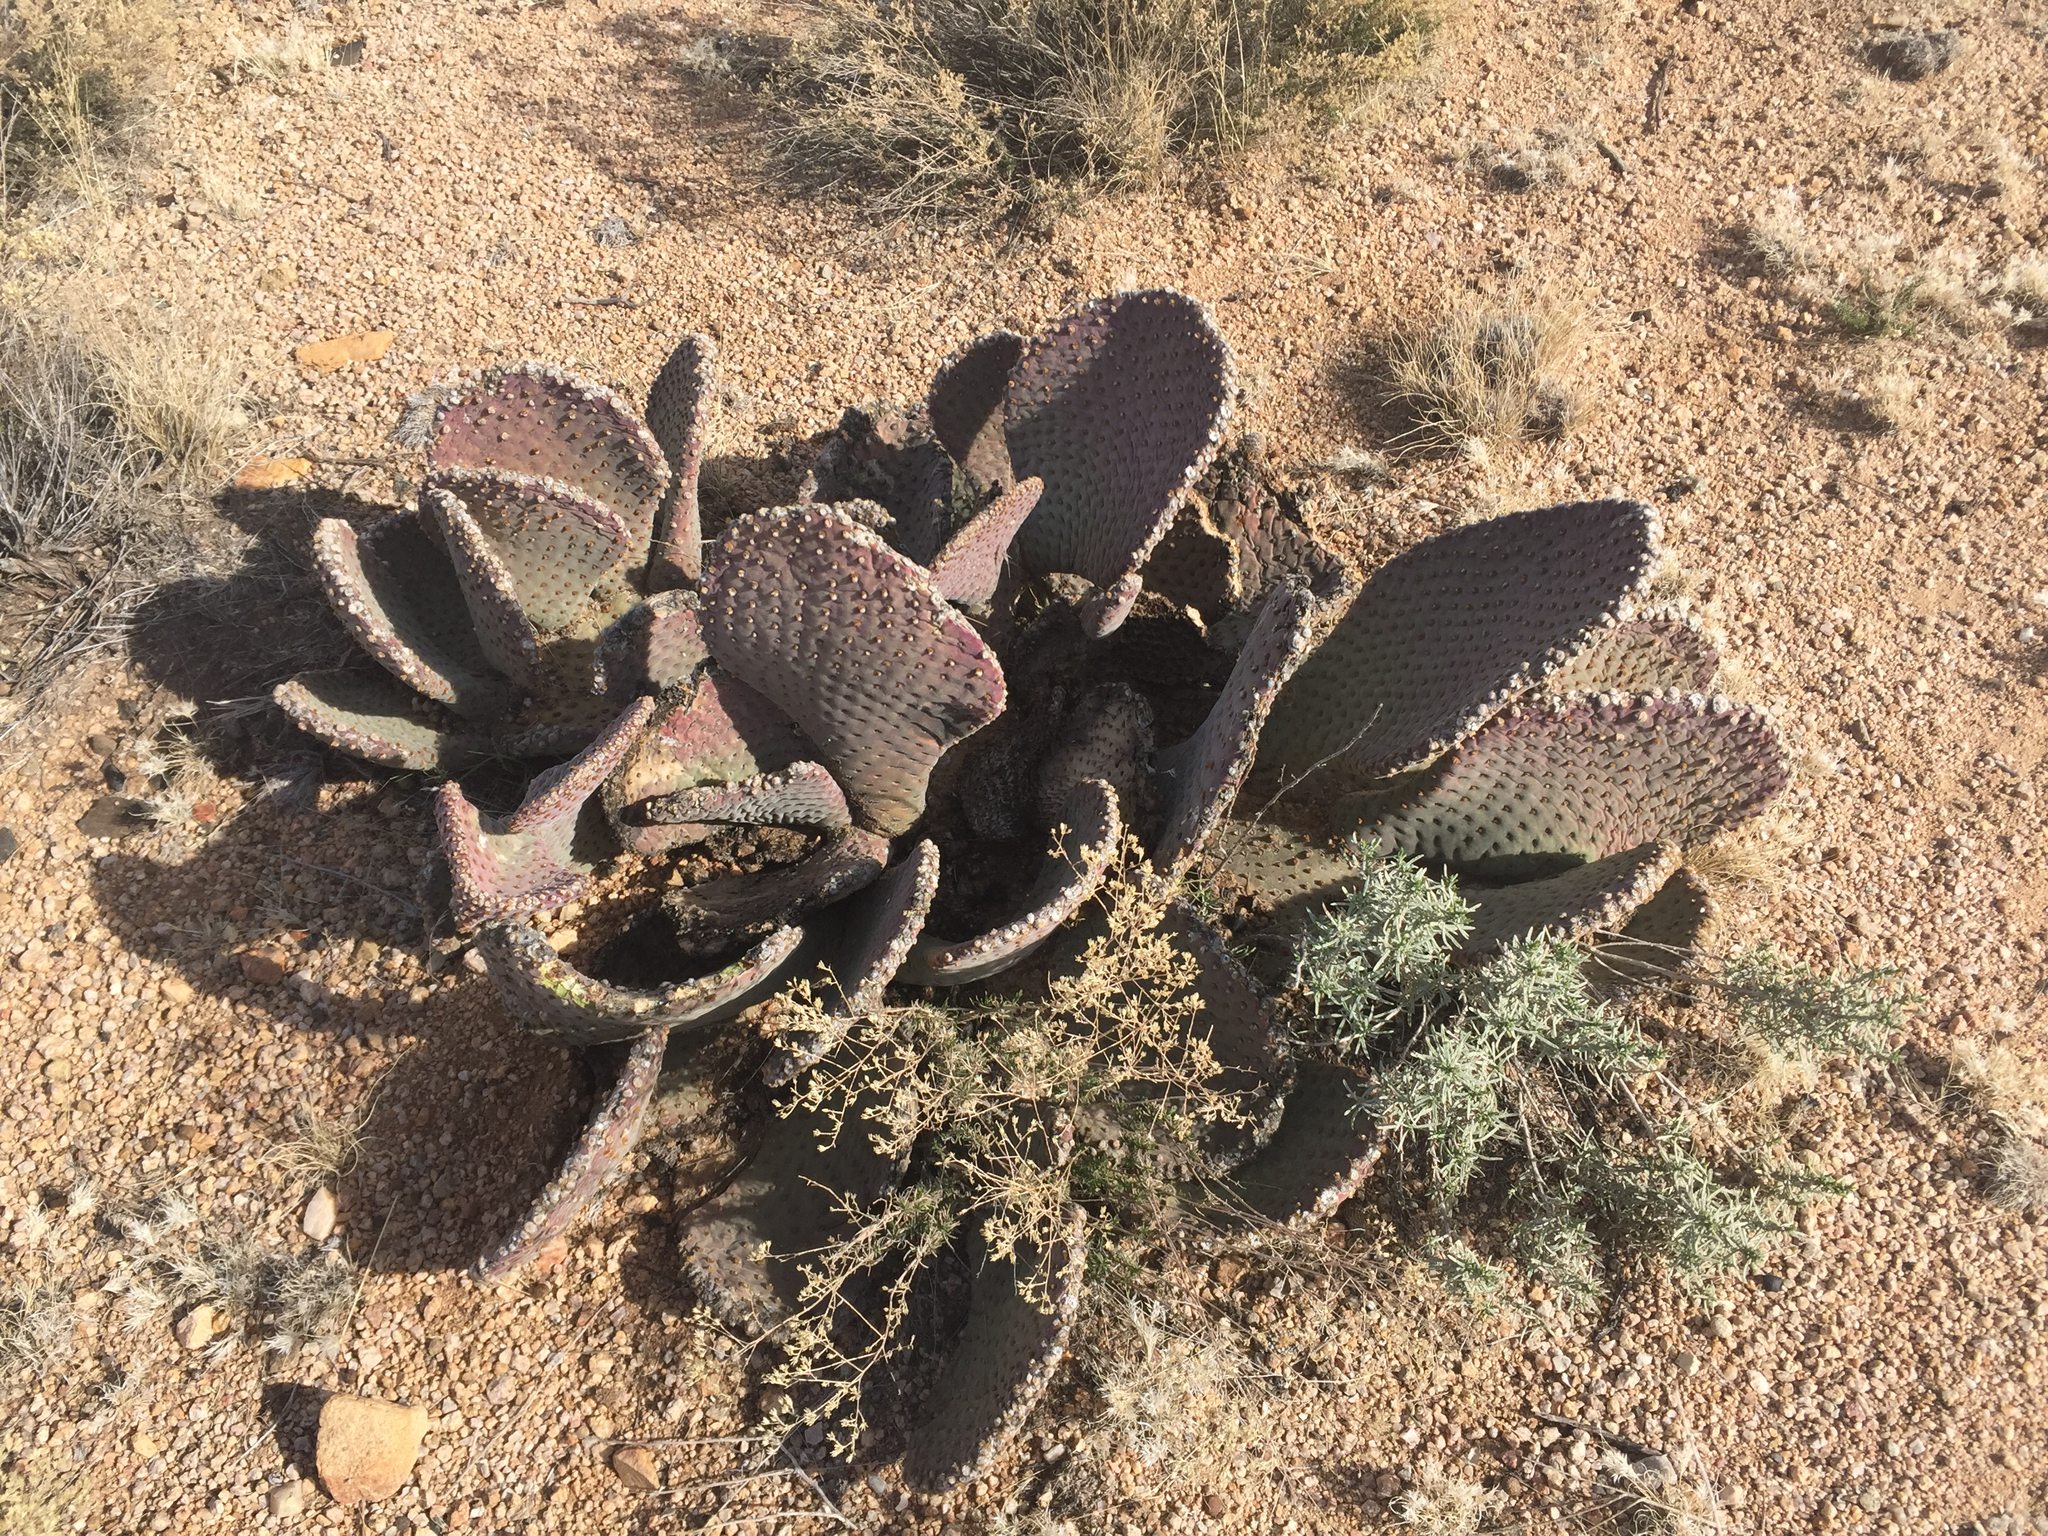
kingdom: Plantae
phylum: Tracheophyta
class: Magnoliopsida
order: Caryophyllales
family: Cactaceae
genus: Opuntia
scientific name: Opuntia basilaris
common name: Beavertail prickly-pear
